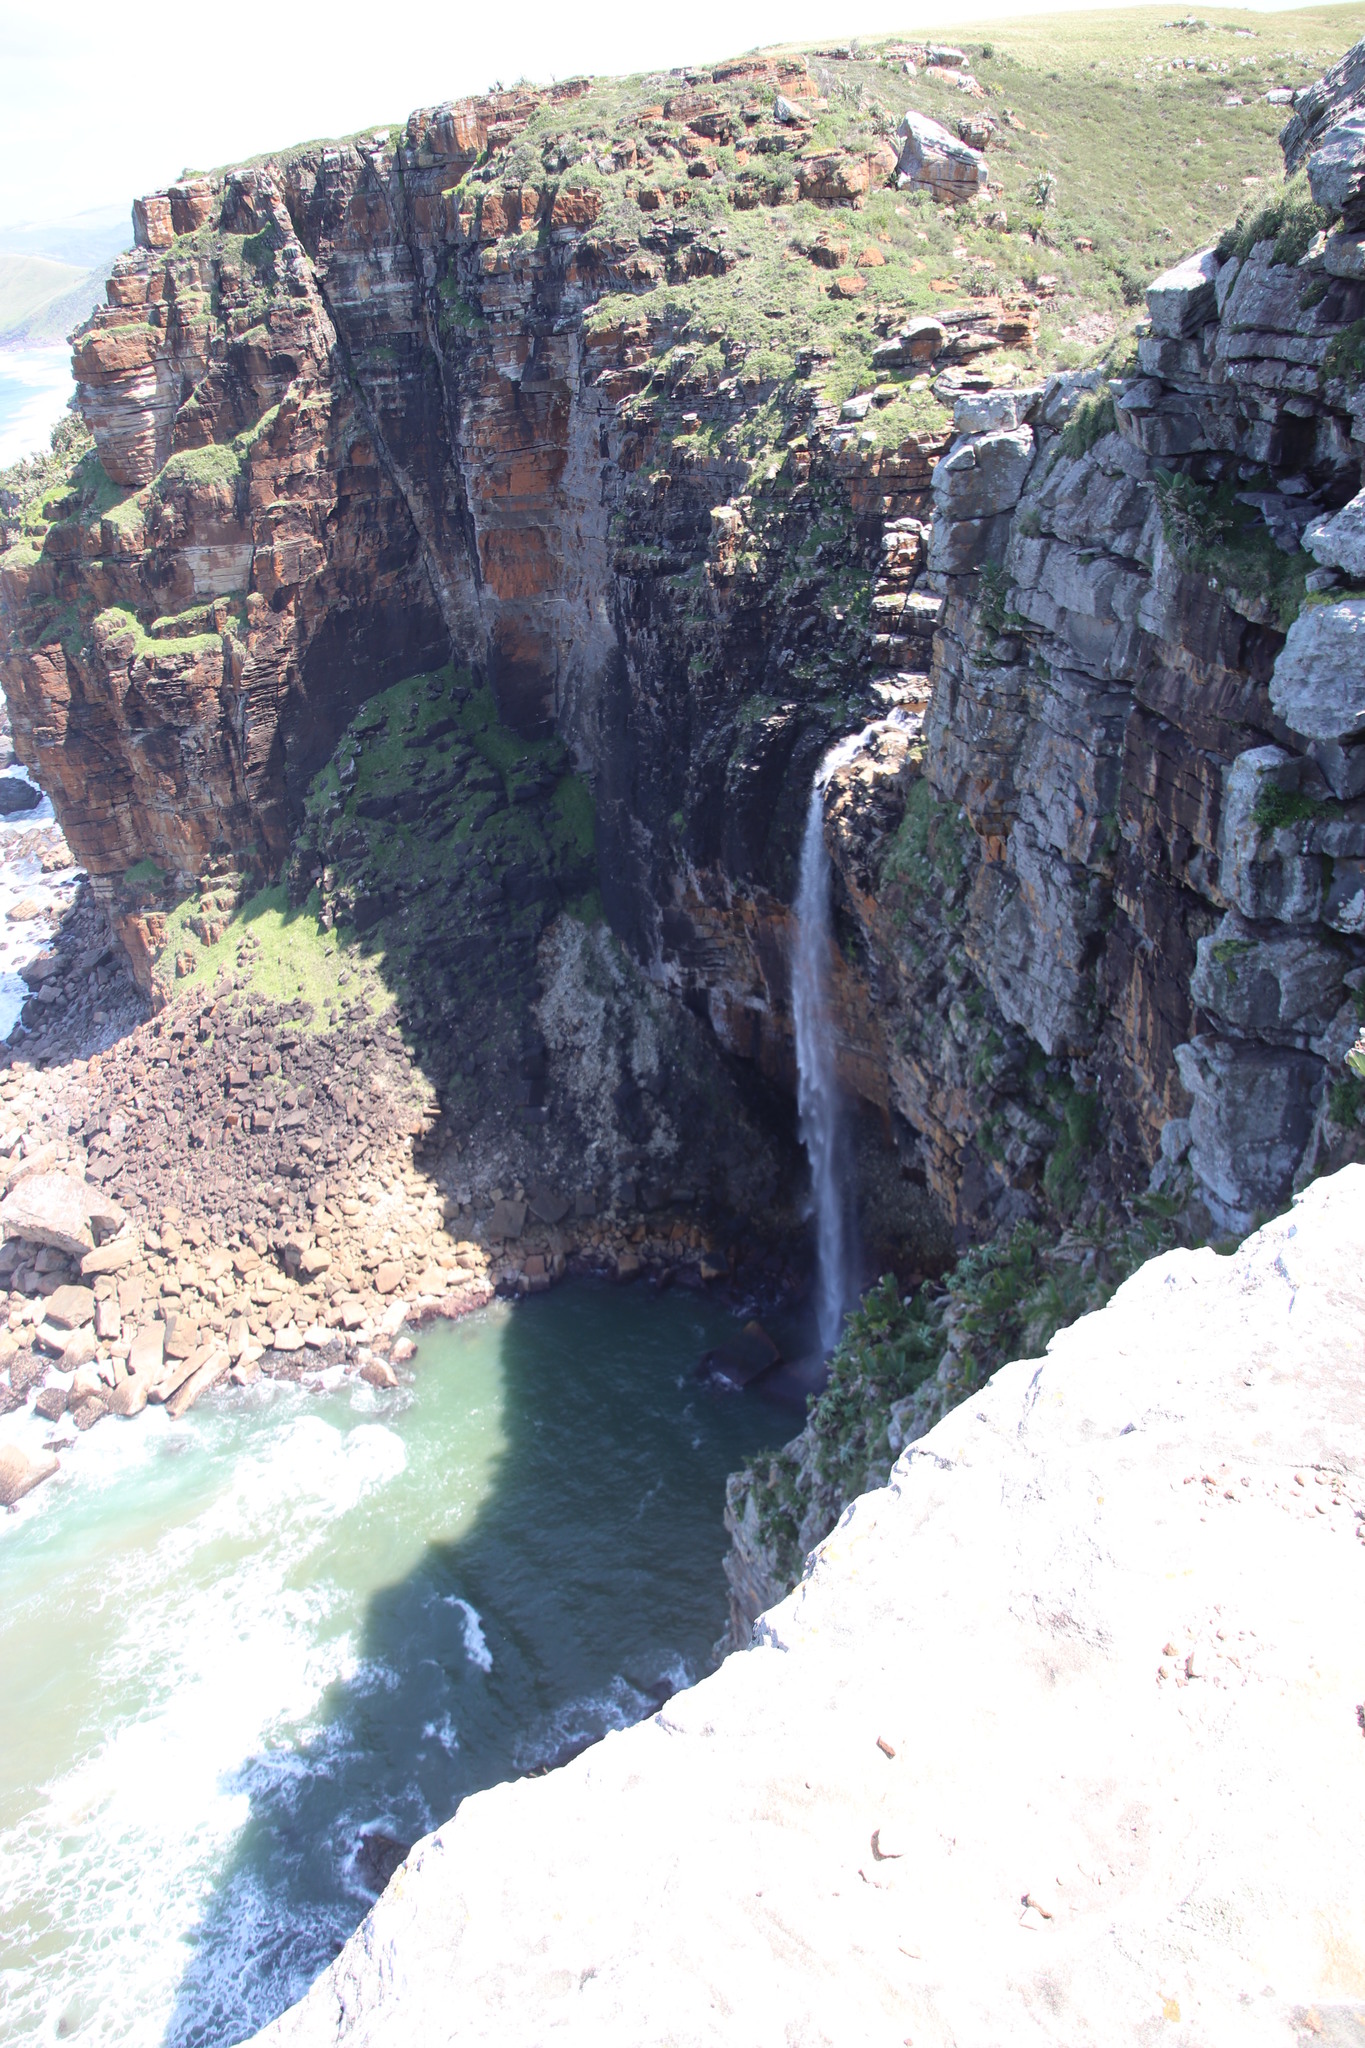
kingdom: Plantae
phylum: Tracheophyta
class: Liliopsida
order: Zingiberales
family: Strelitziaceae
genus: Strelitzia
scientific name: Strelitzia nicolai
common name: Bird-of-paradise tree
